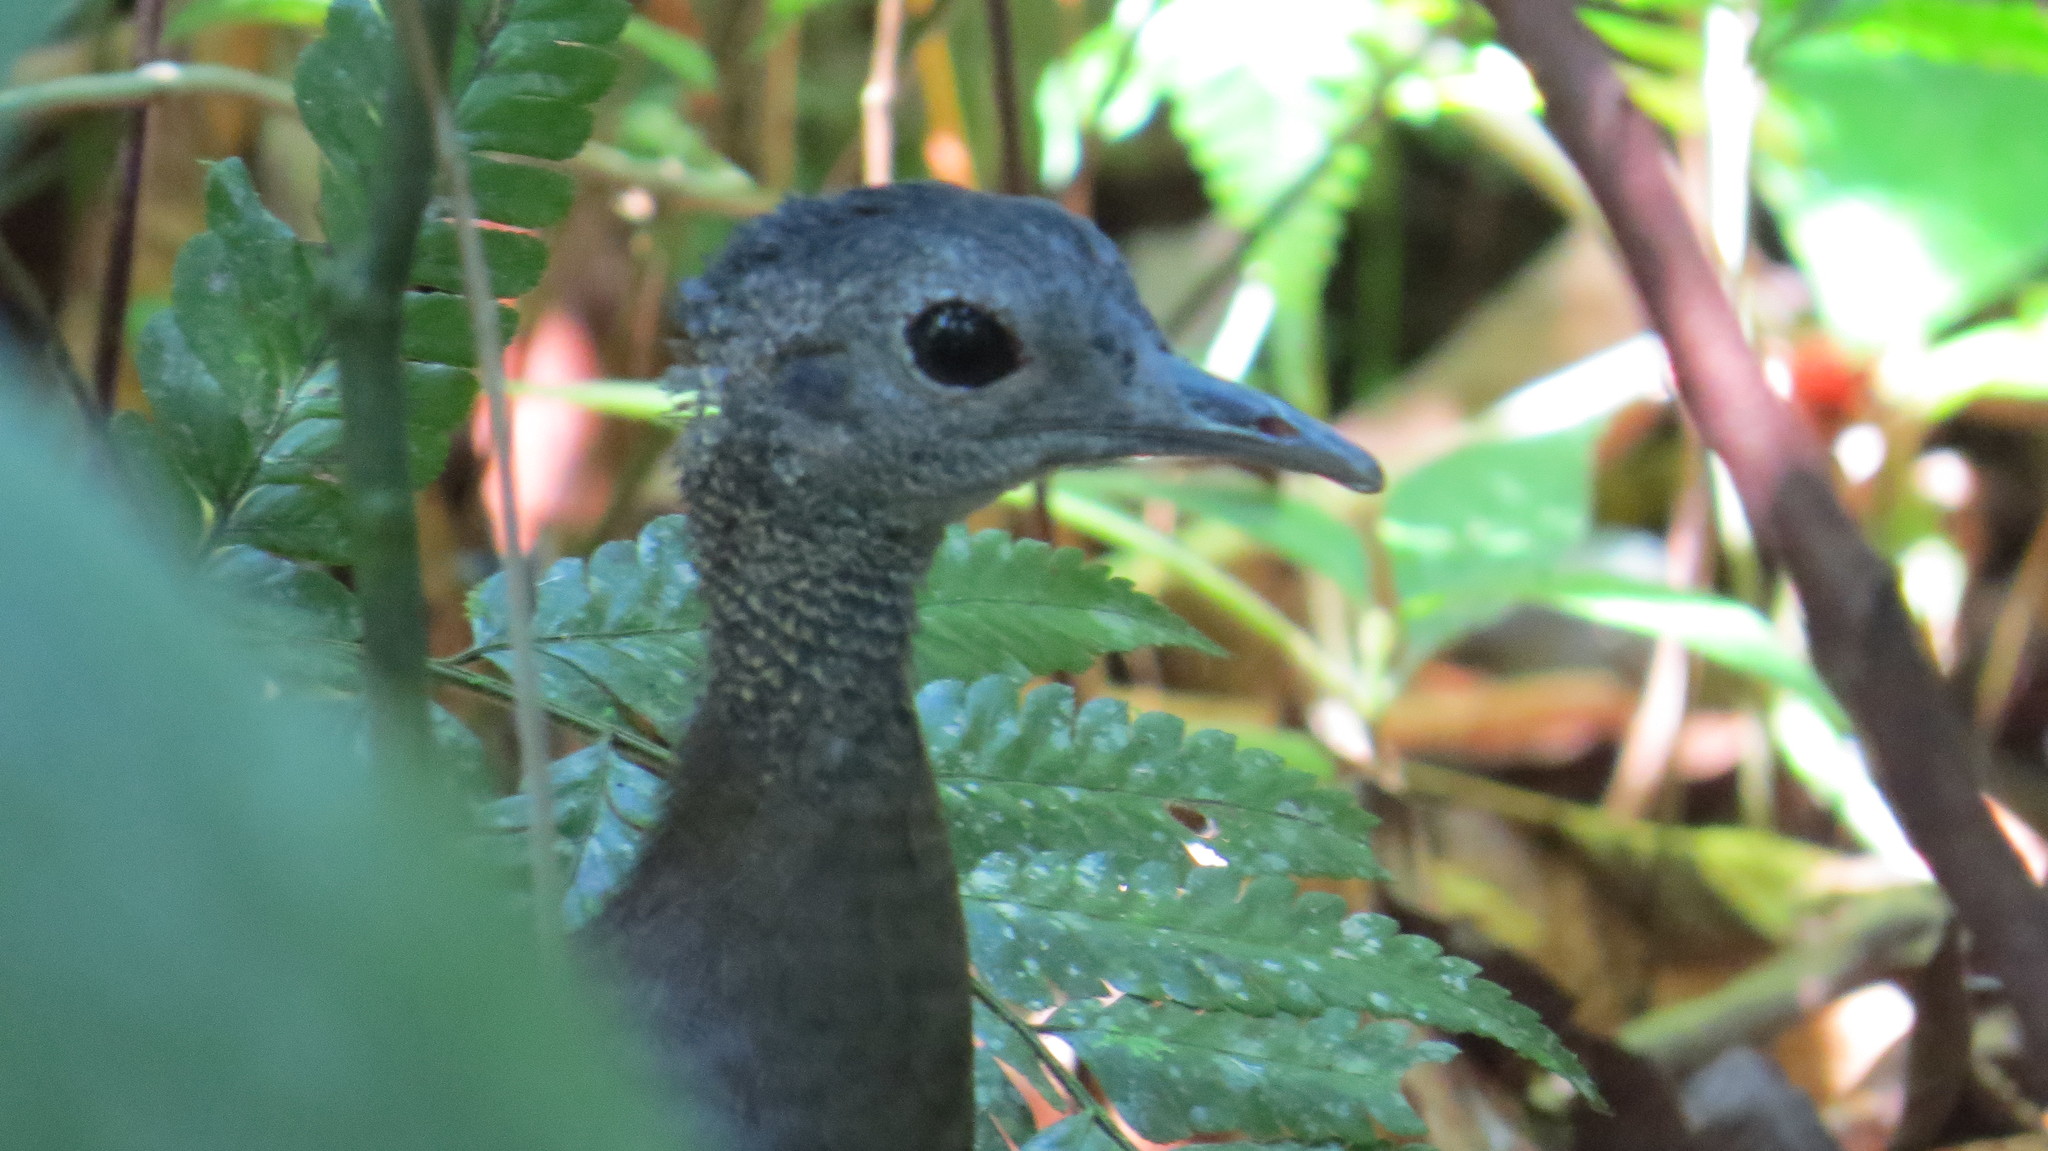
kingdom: Animalia
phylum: Chordata
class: Aves
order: Tinamiformes
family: Tinamidae
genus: Tinamus
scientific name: Tinamus major
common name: Great tinamou
